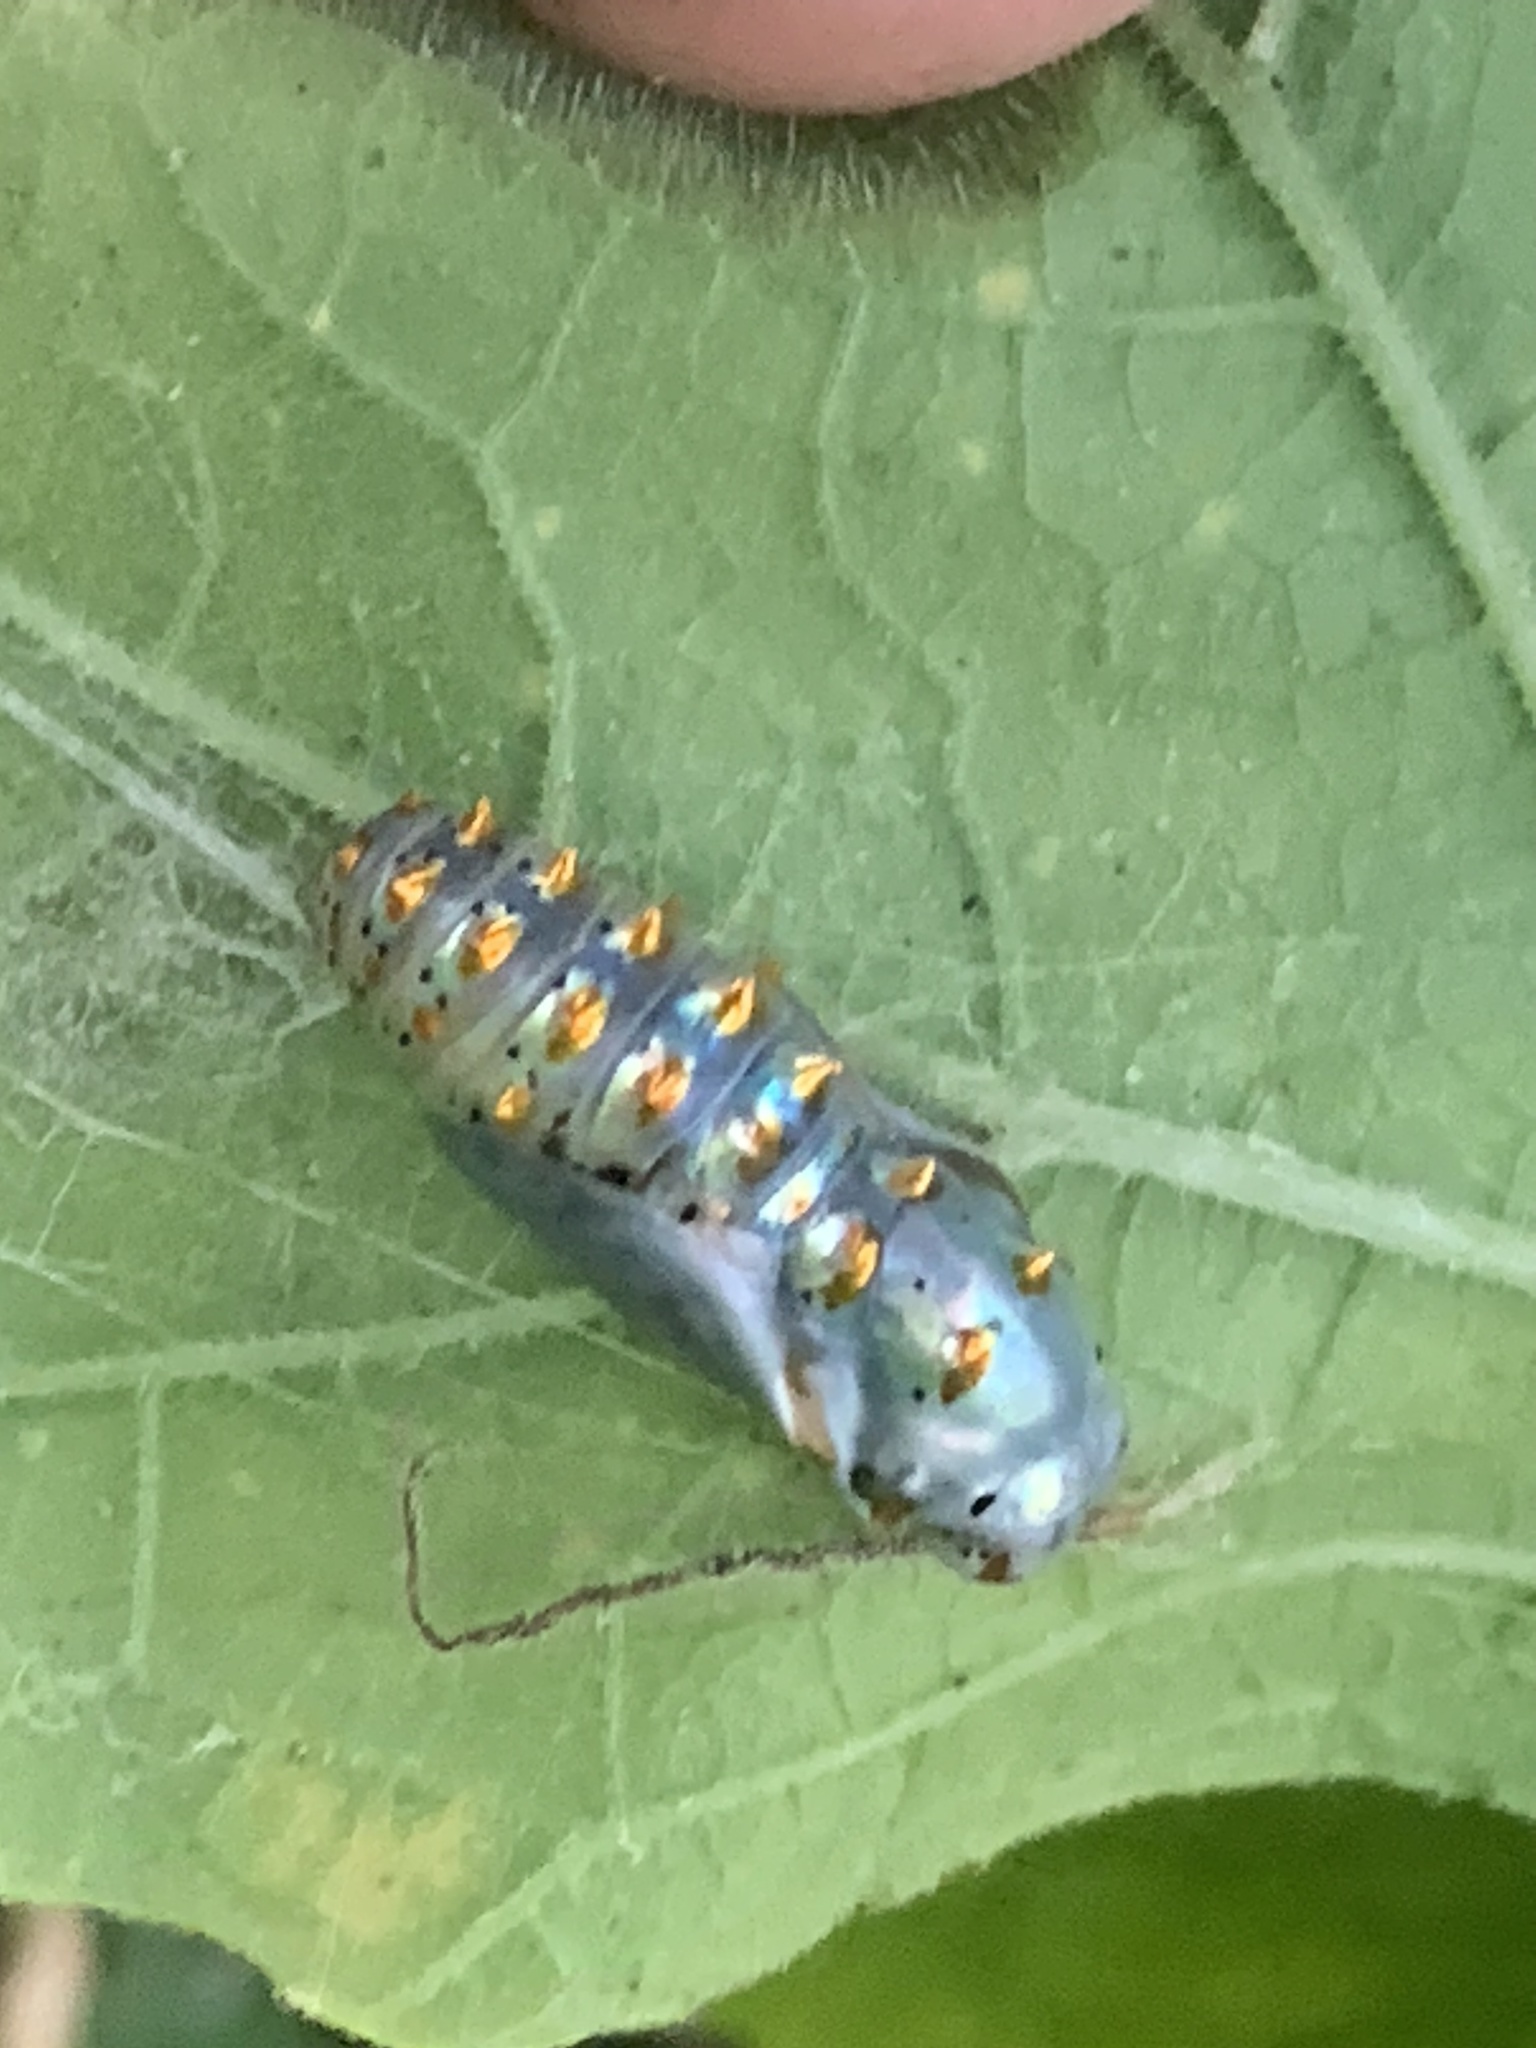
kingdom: Animalia
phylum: Arthropoda
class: Insecta
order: Lepidoptera
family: Nymphalidae
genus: Euptoieta
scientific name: Euptoieta claudia
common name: Variegated fritillary
